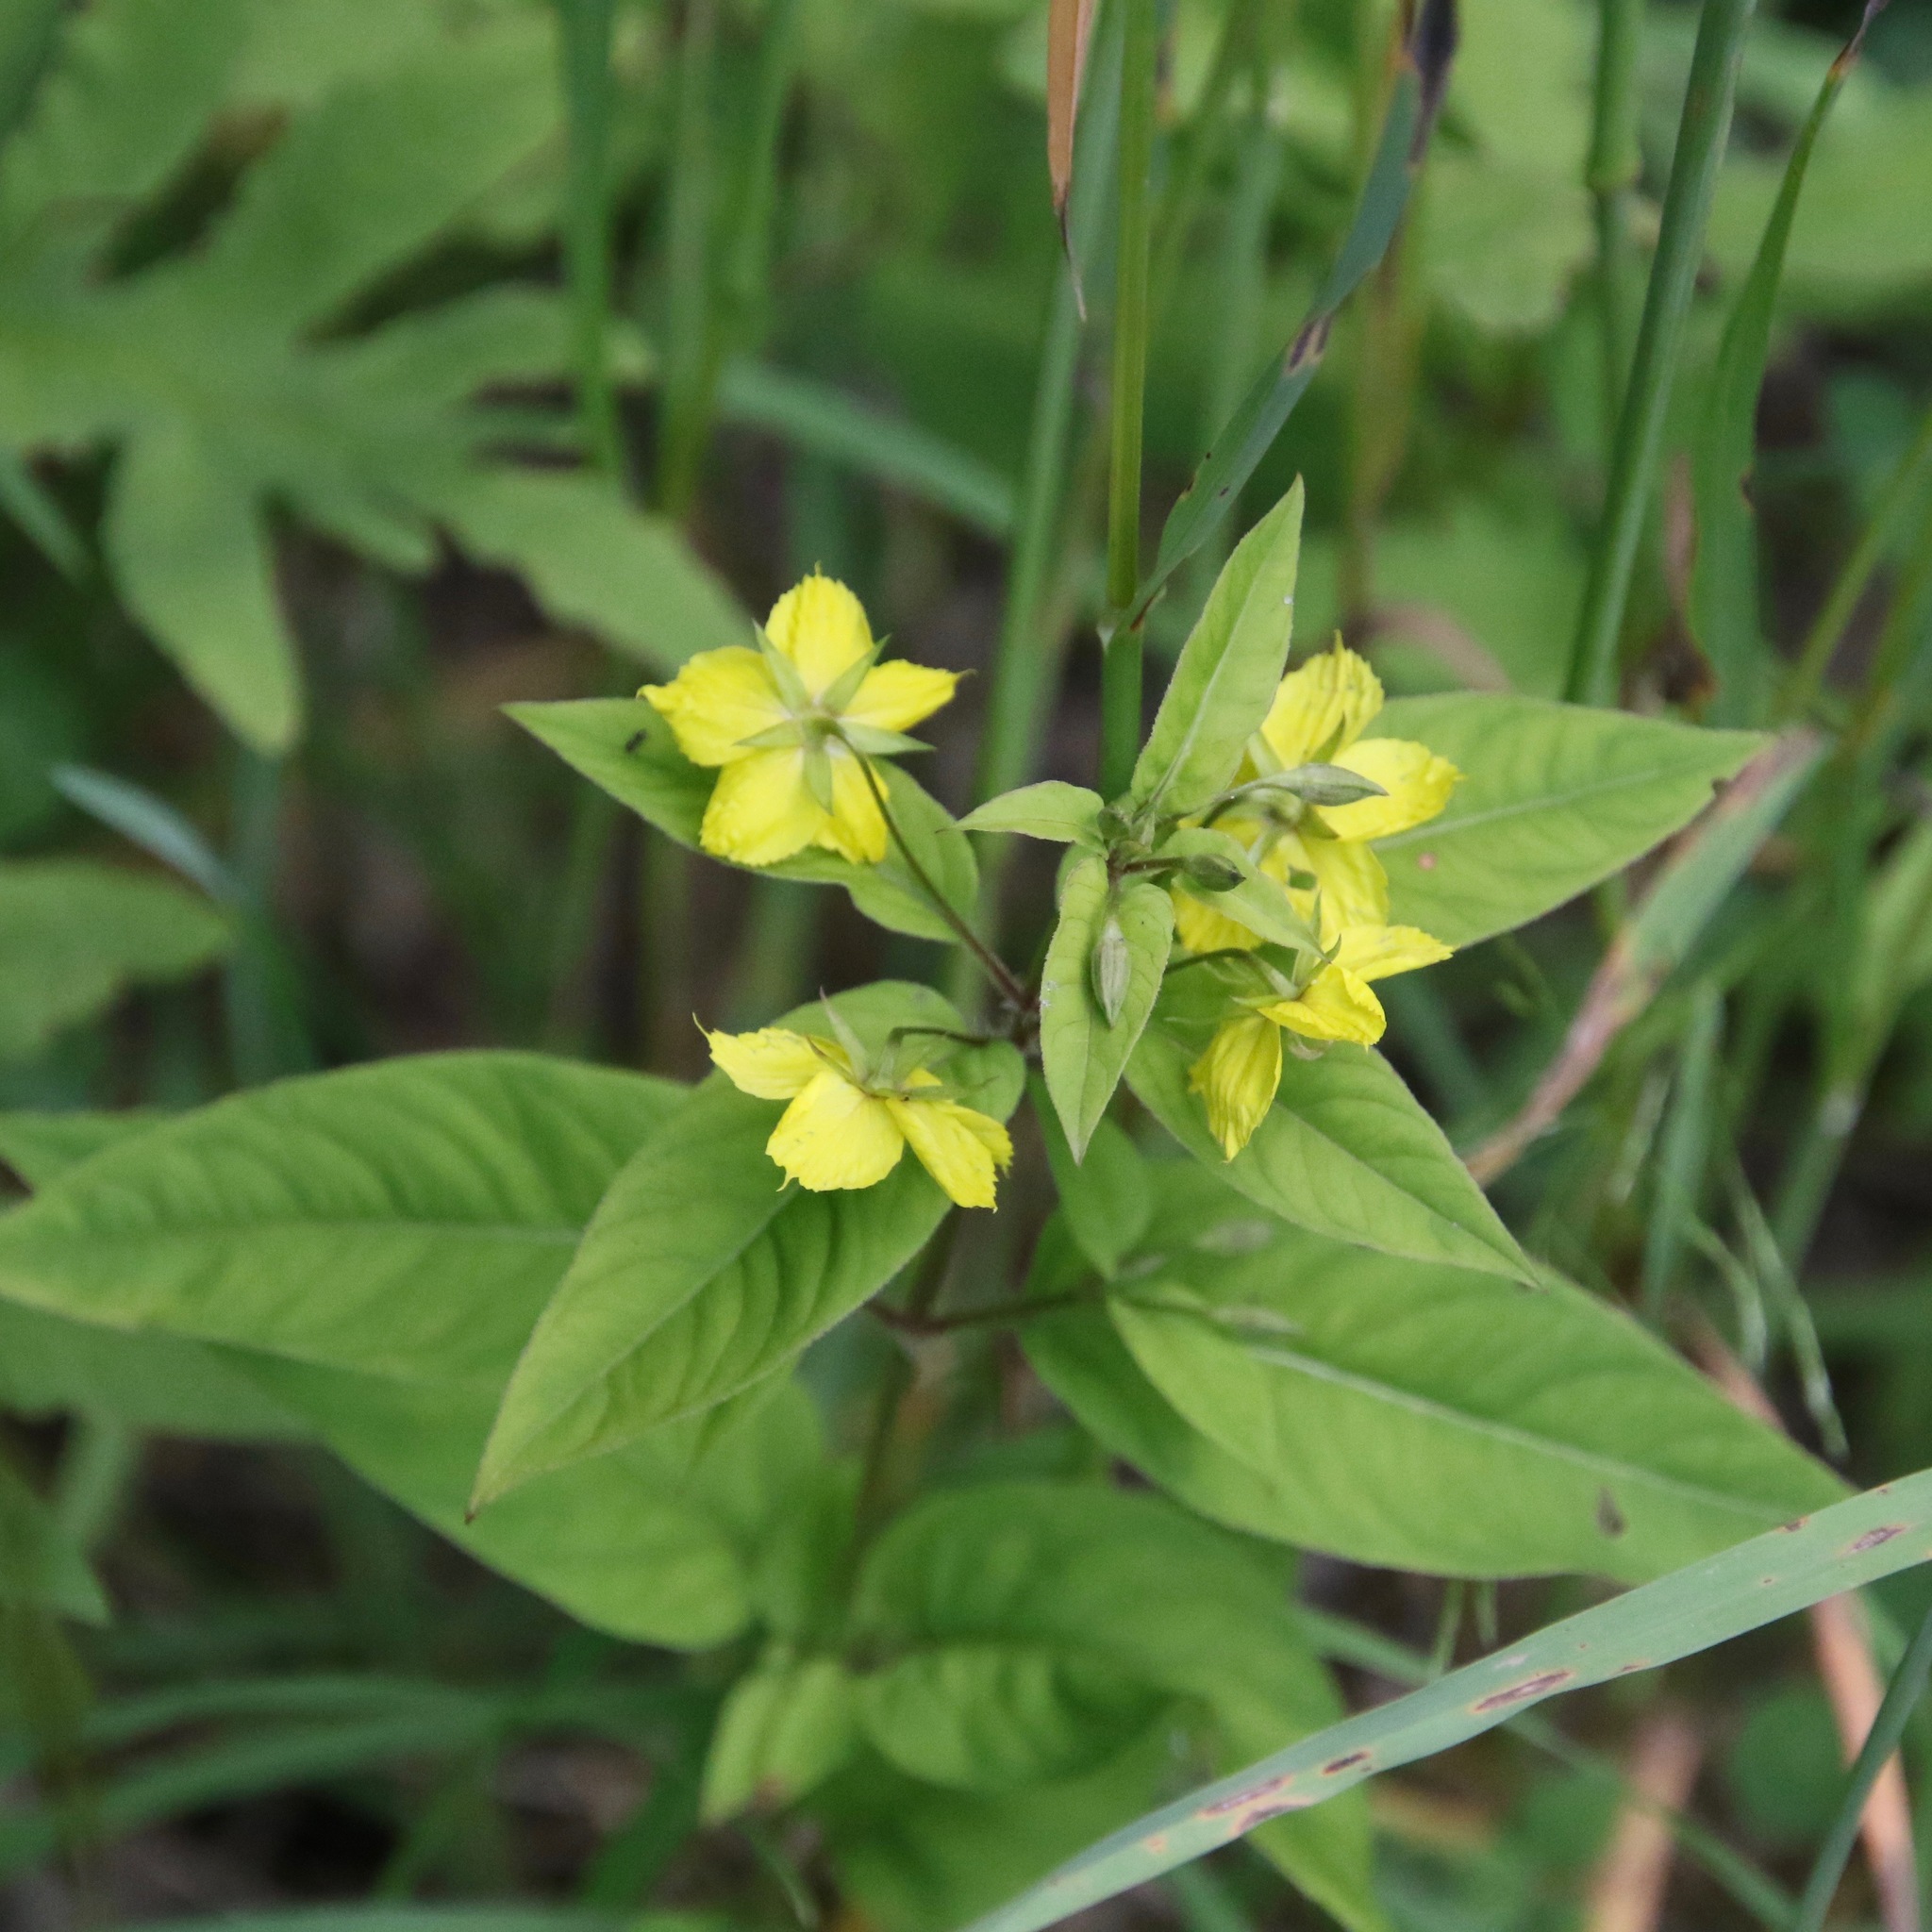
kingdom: Plantae
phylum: Tracheophyta
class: Magnoliopsida
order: Ericales
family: Primulaceae
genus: Lysimachia
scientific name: Lysimachia ciliata
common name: Fringed loosestrife
